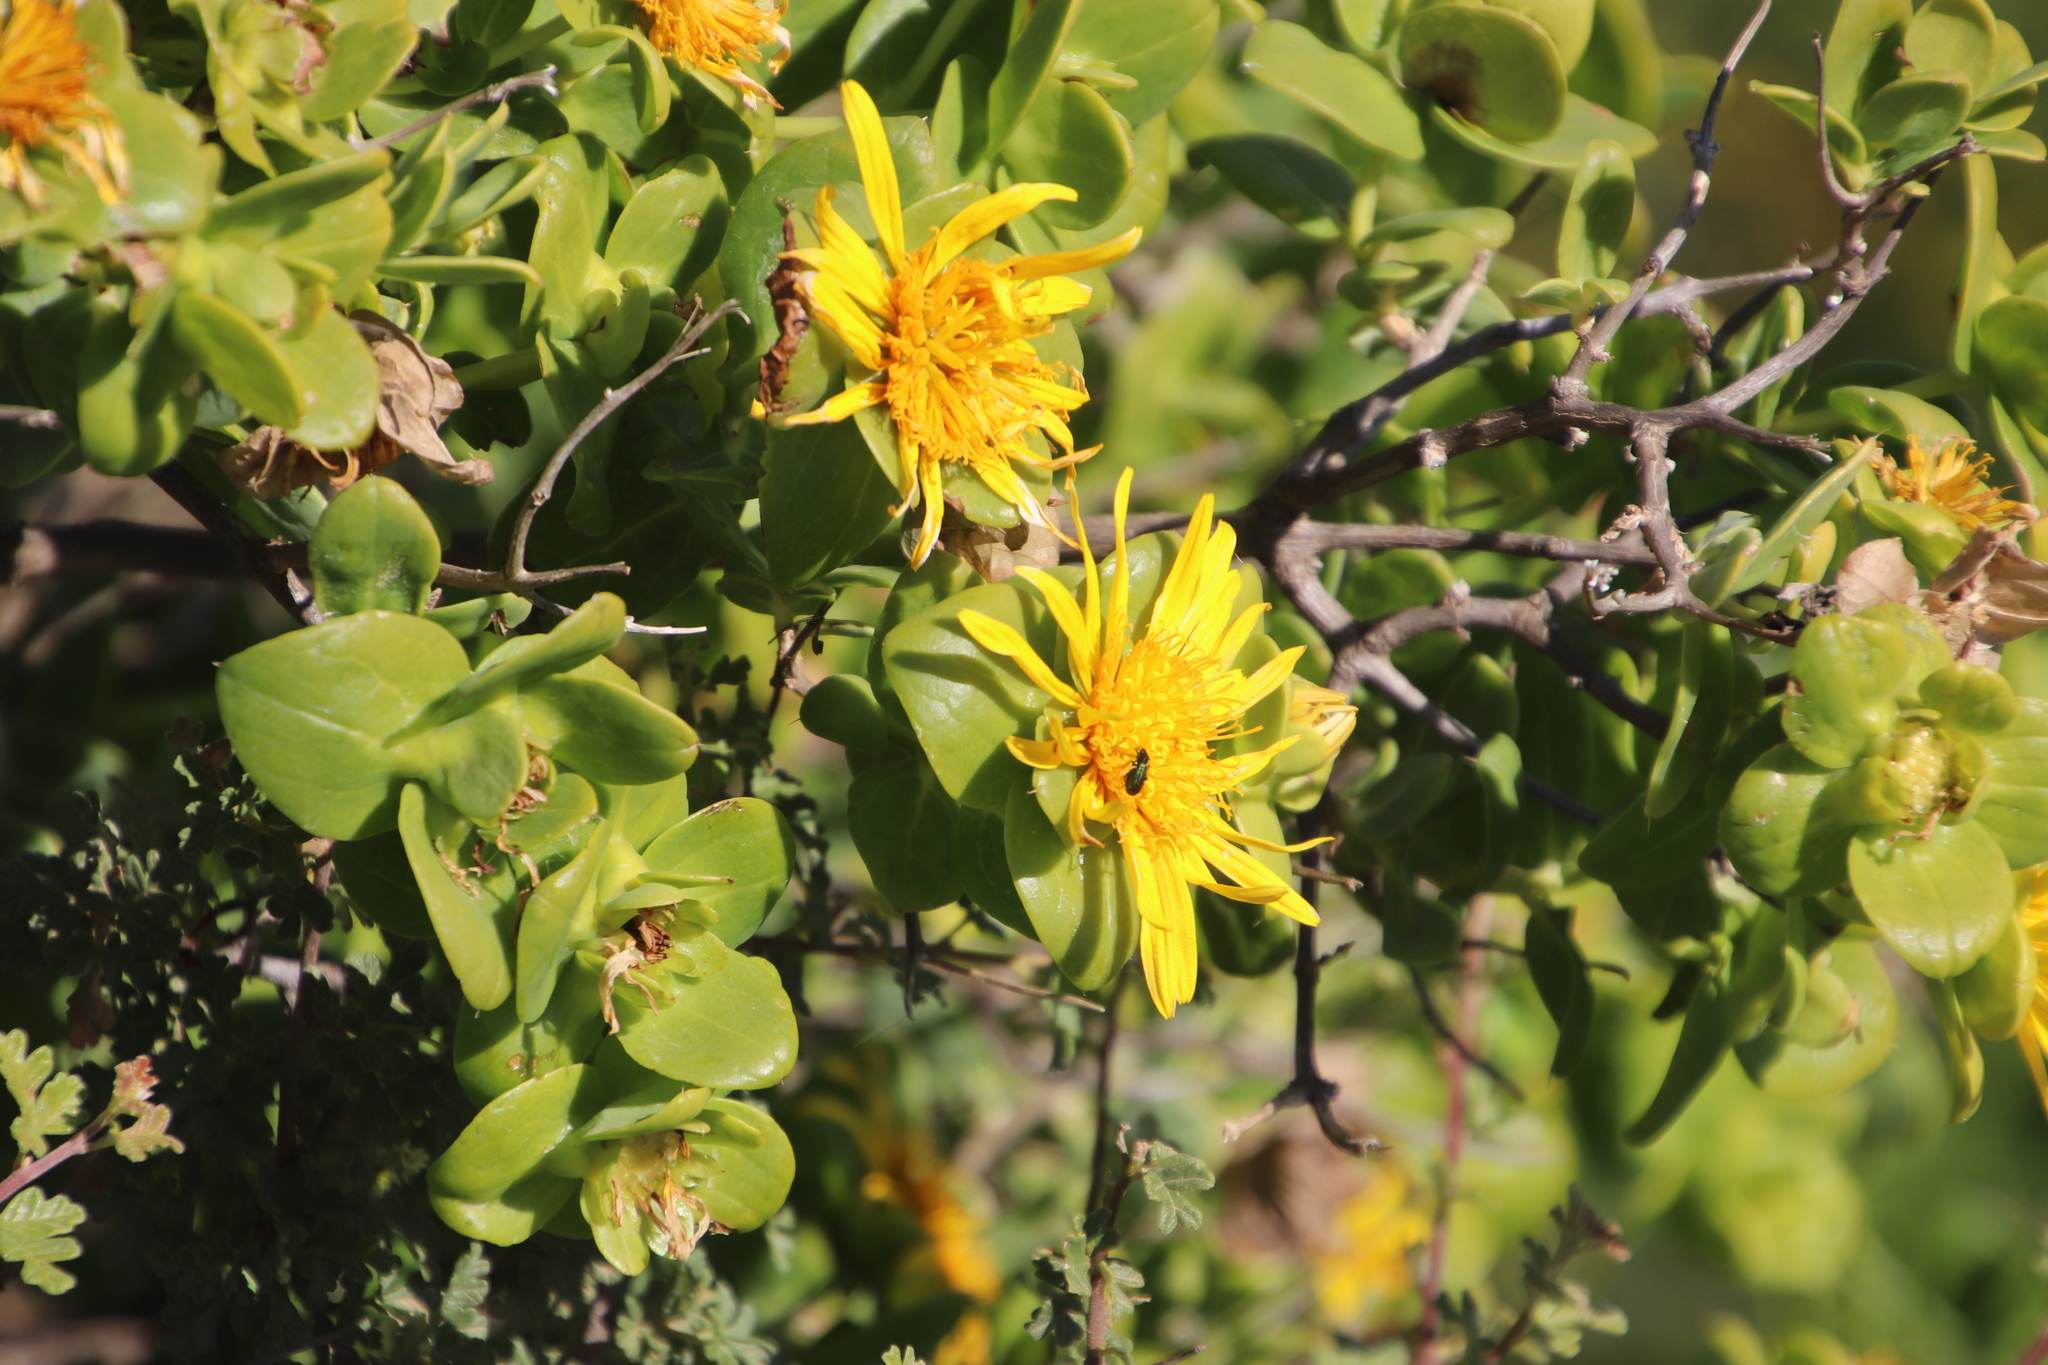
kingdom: Plantae
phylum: Tracheophyta
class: Magnoliopsida
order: Asterales
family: Asteraceae
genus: Didelta
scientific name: Didelta spinosa
